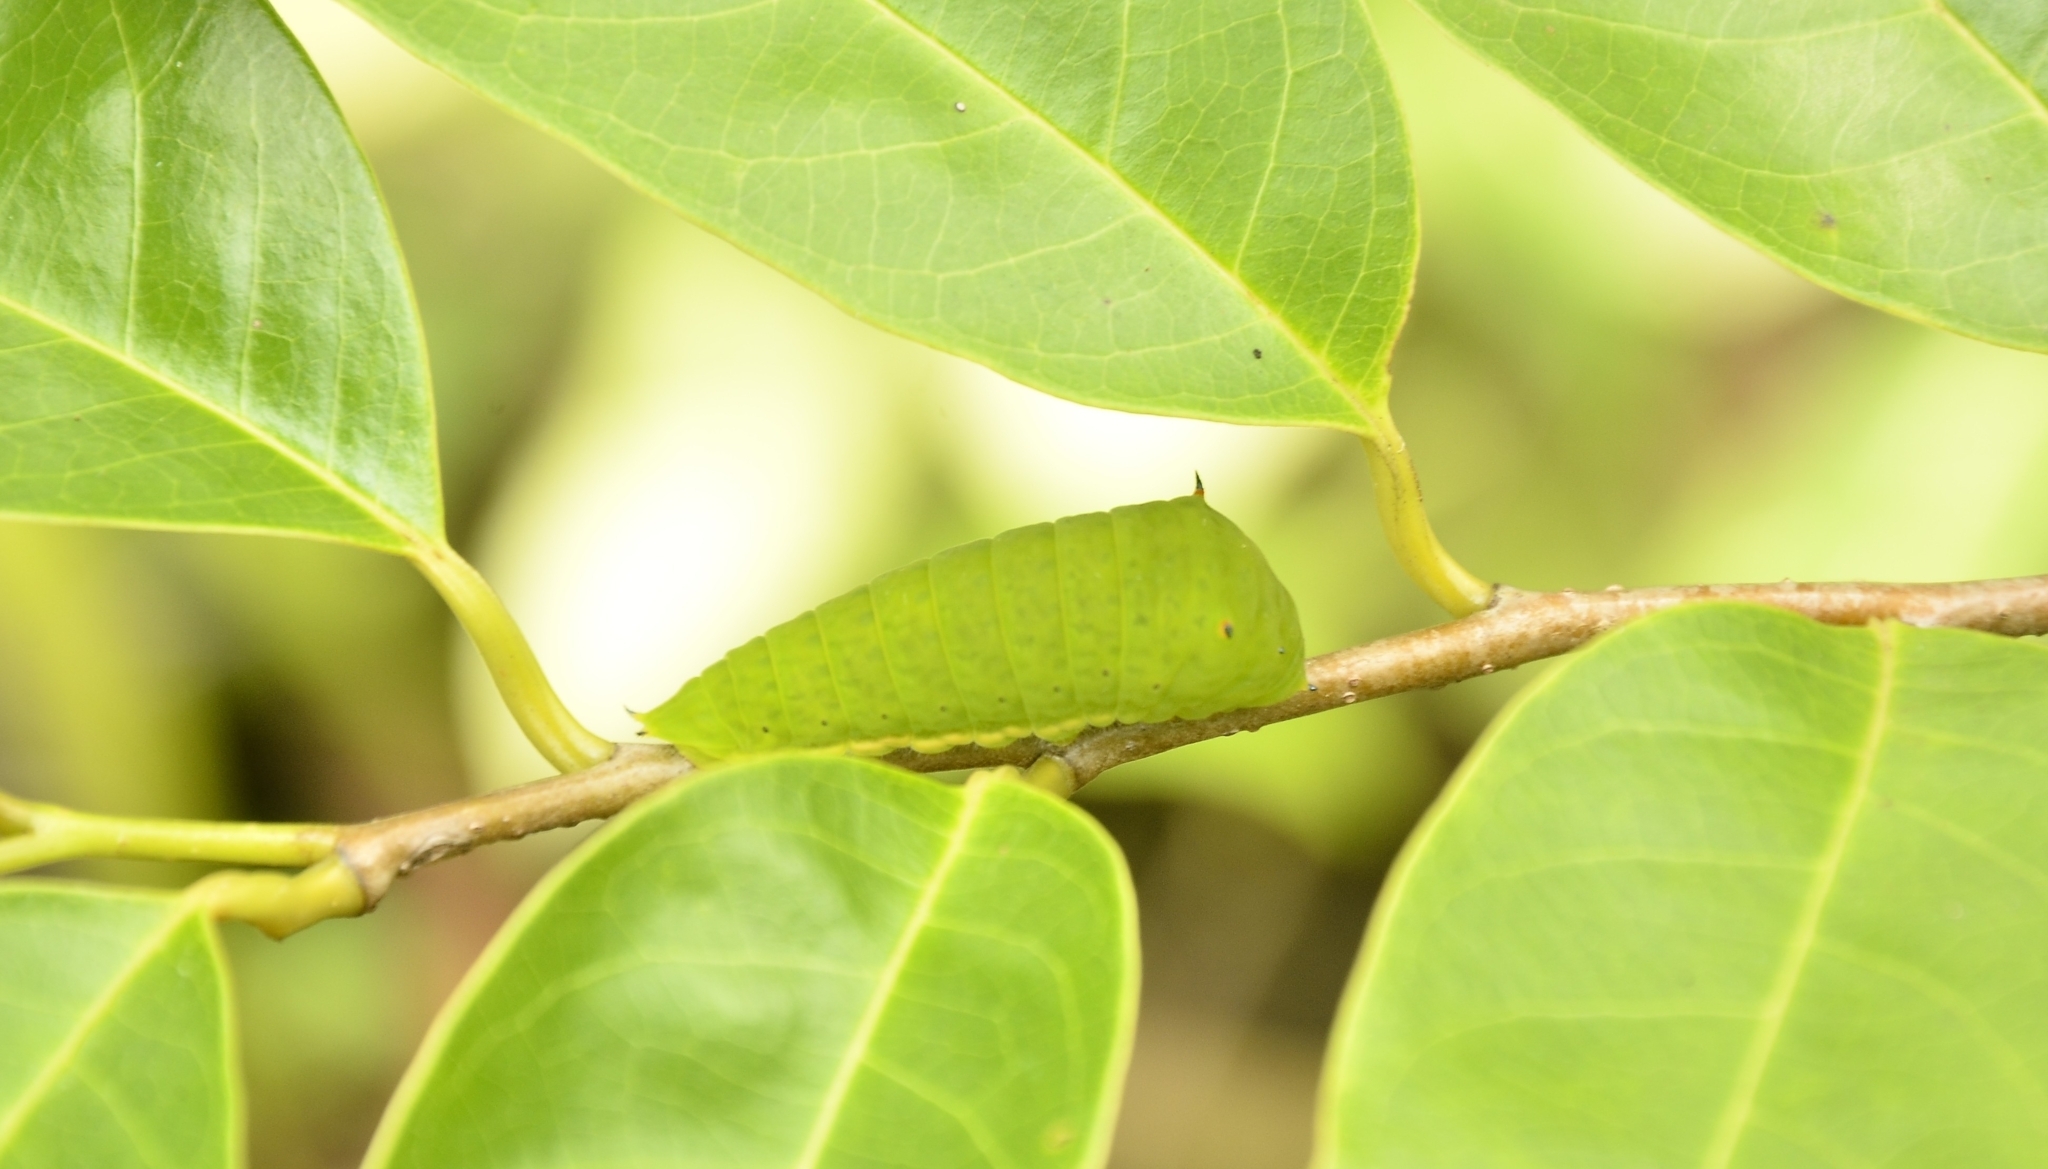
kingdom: Animalia
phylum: Arthropoda
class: Insecta
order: Lepidoptera
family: Papilionidae
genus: Graphium
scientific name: Graphium agamemnon
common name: Tailed jay
